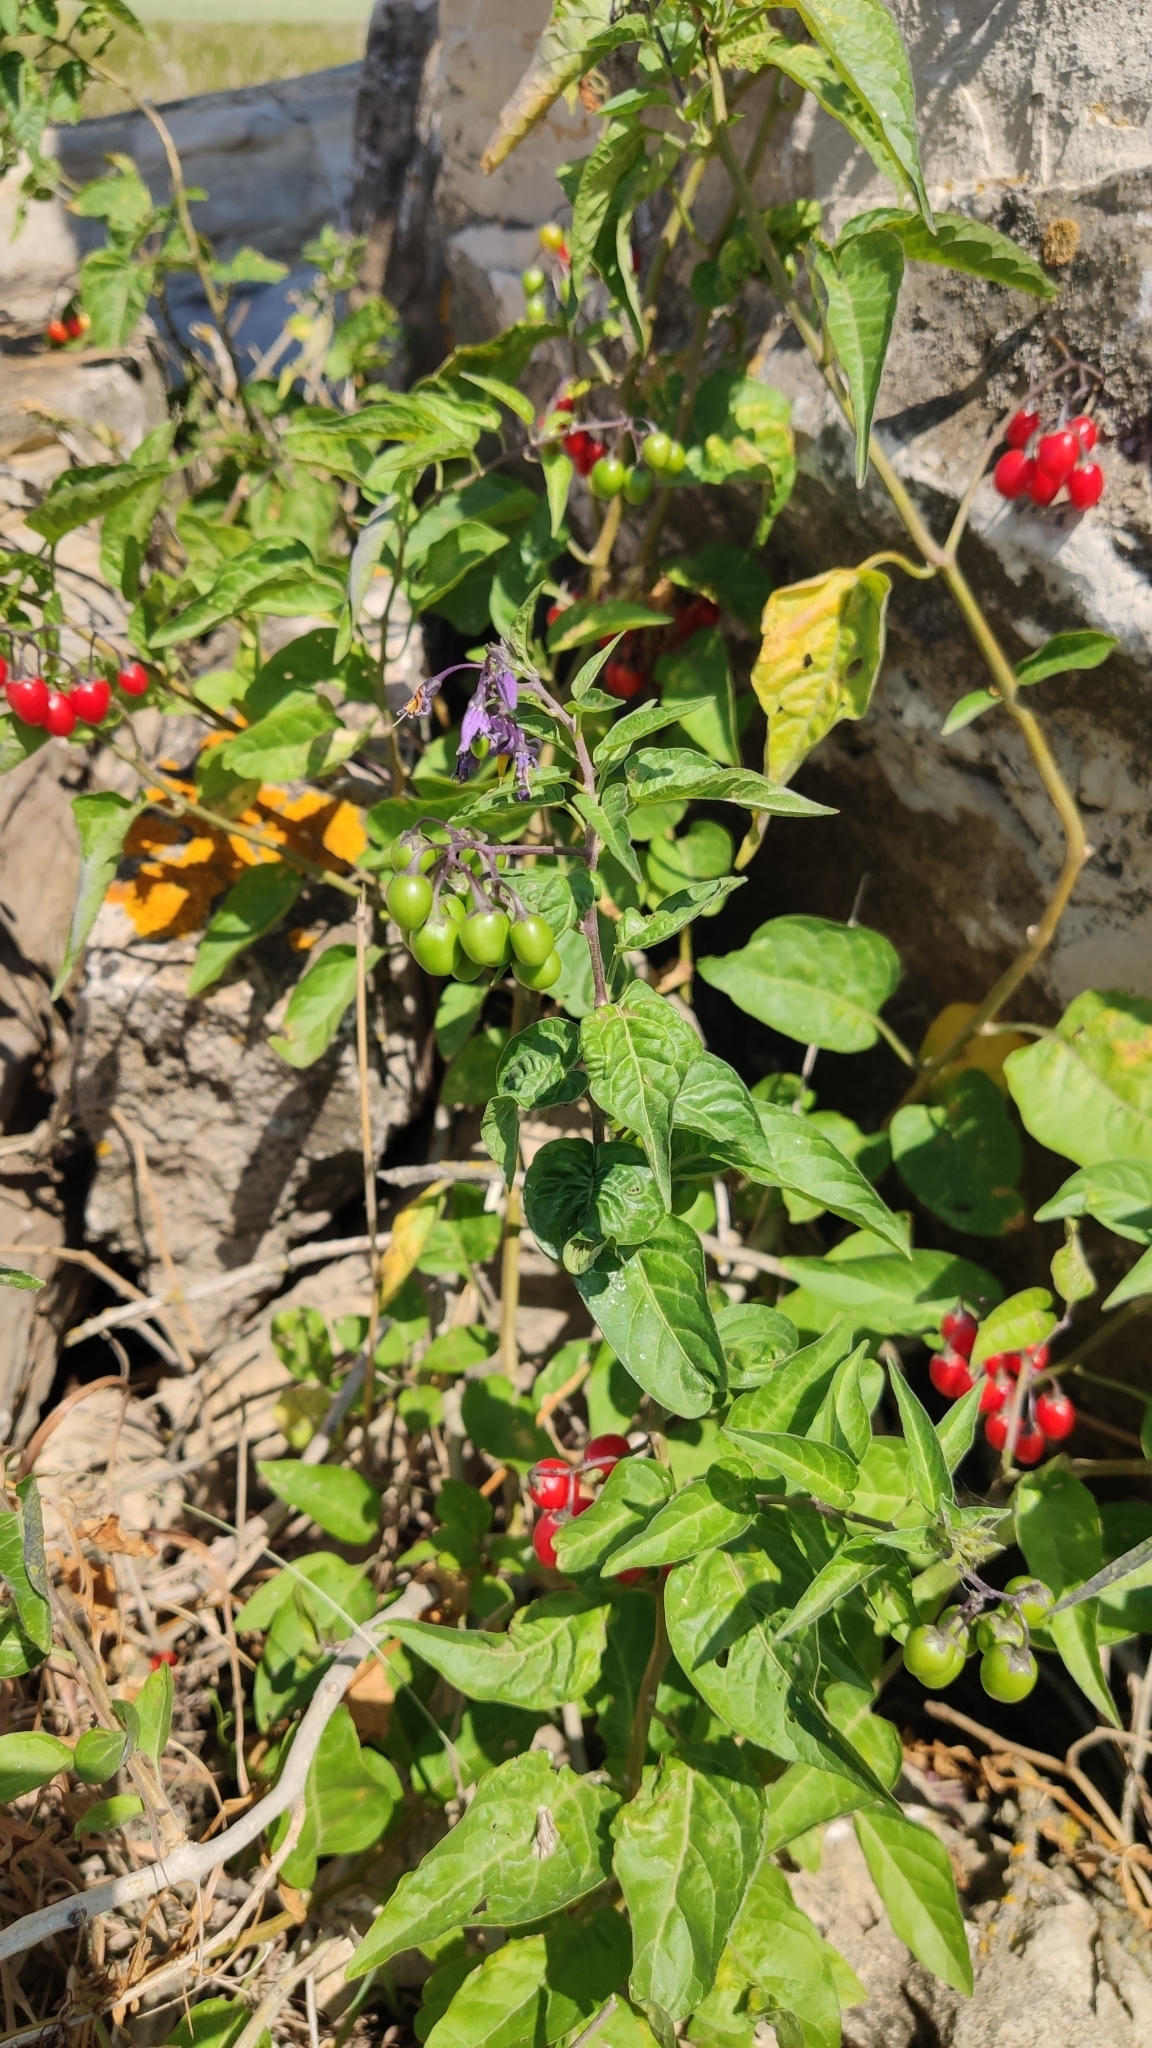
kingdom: Plantae
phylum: Tracheophyta
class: Magnoliopsida
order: Solanales
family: Solanaceae
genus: Solanum
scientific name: Solanum dulcamara
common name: Climbing nightshade
